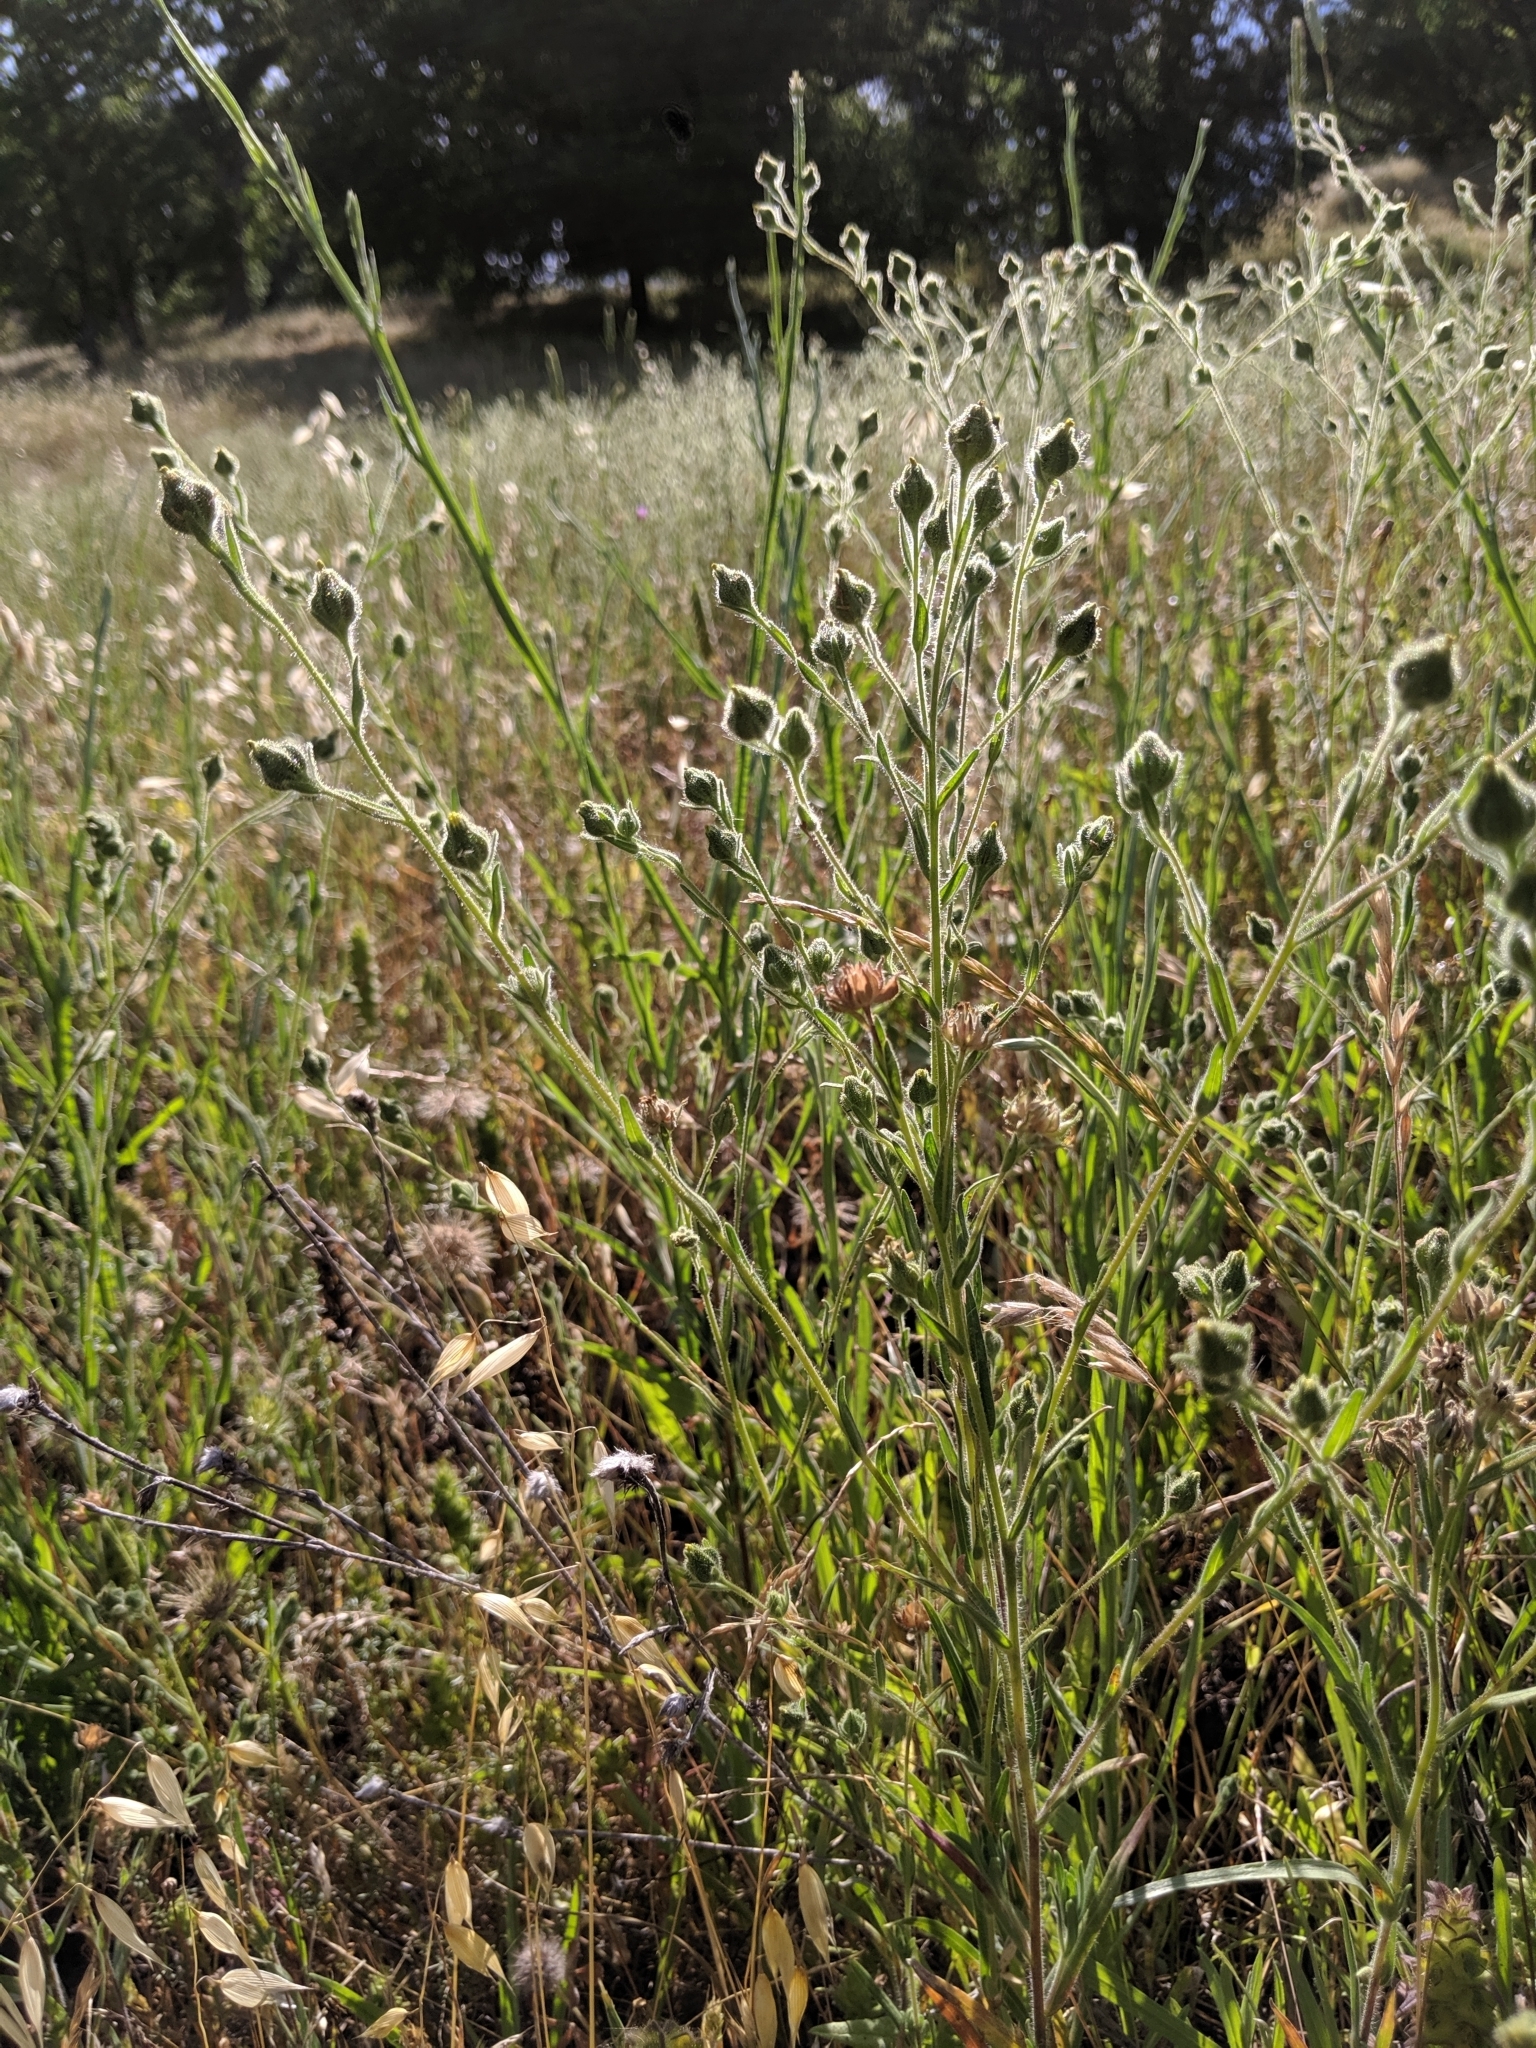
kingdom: Plantae
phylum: Tracheophyta
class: Magnoliopsida
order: Asterales
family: Asteraceae
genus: Madia
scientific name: Madia gracilis
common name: Grassy tarweed
